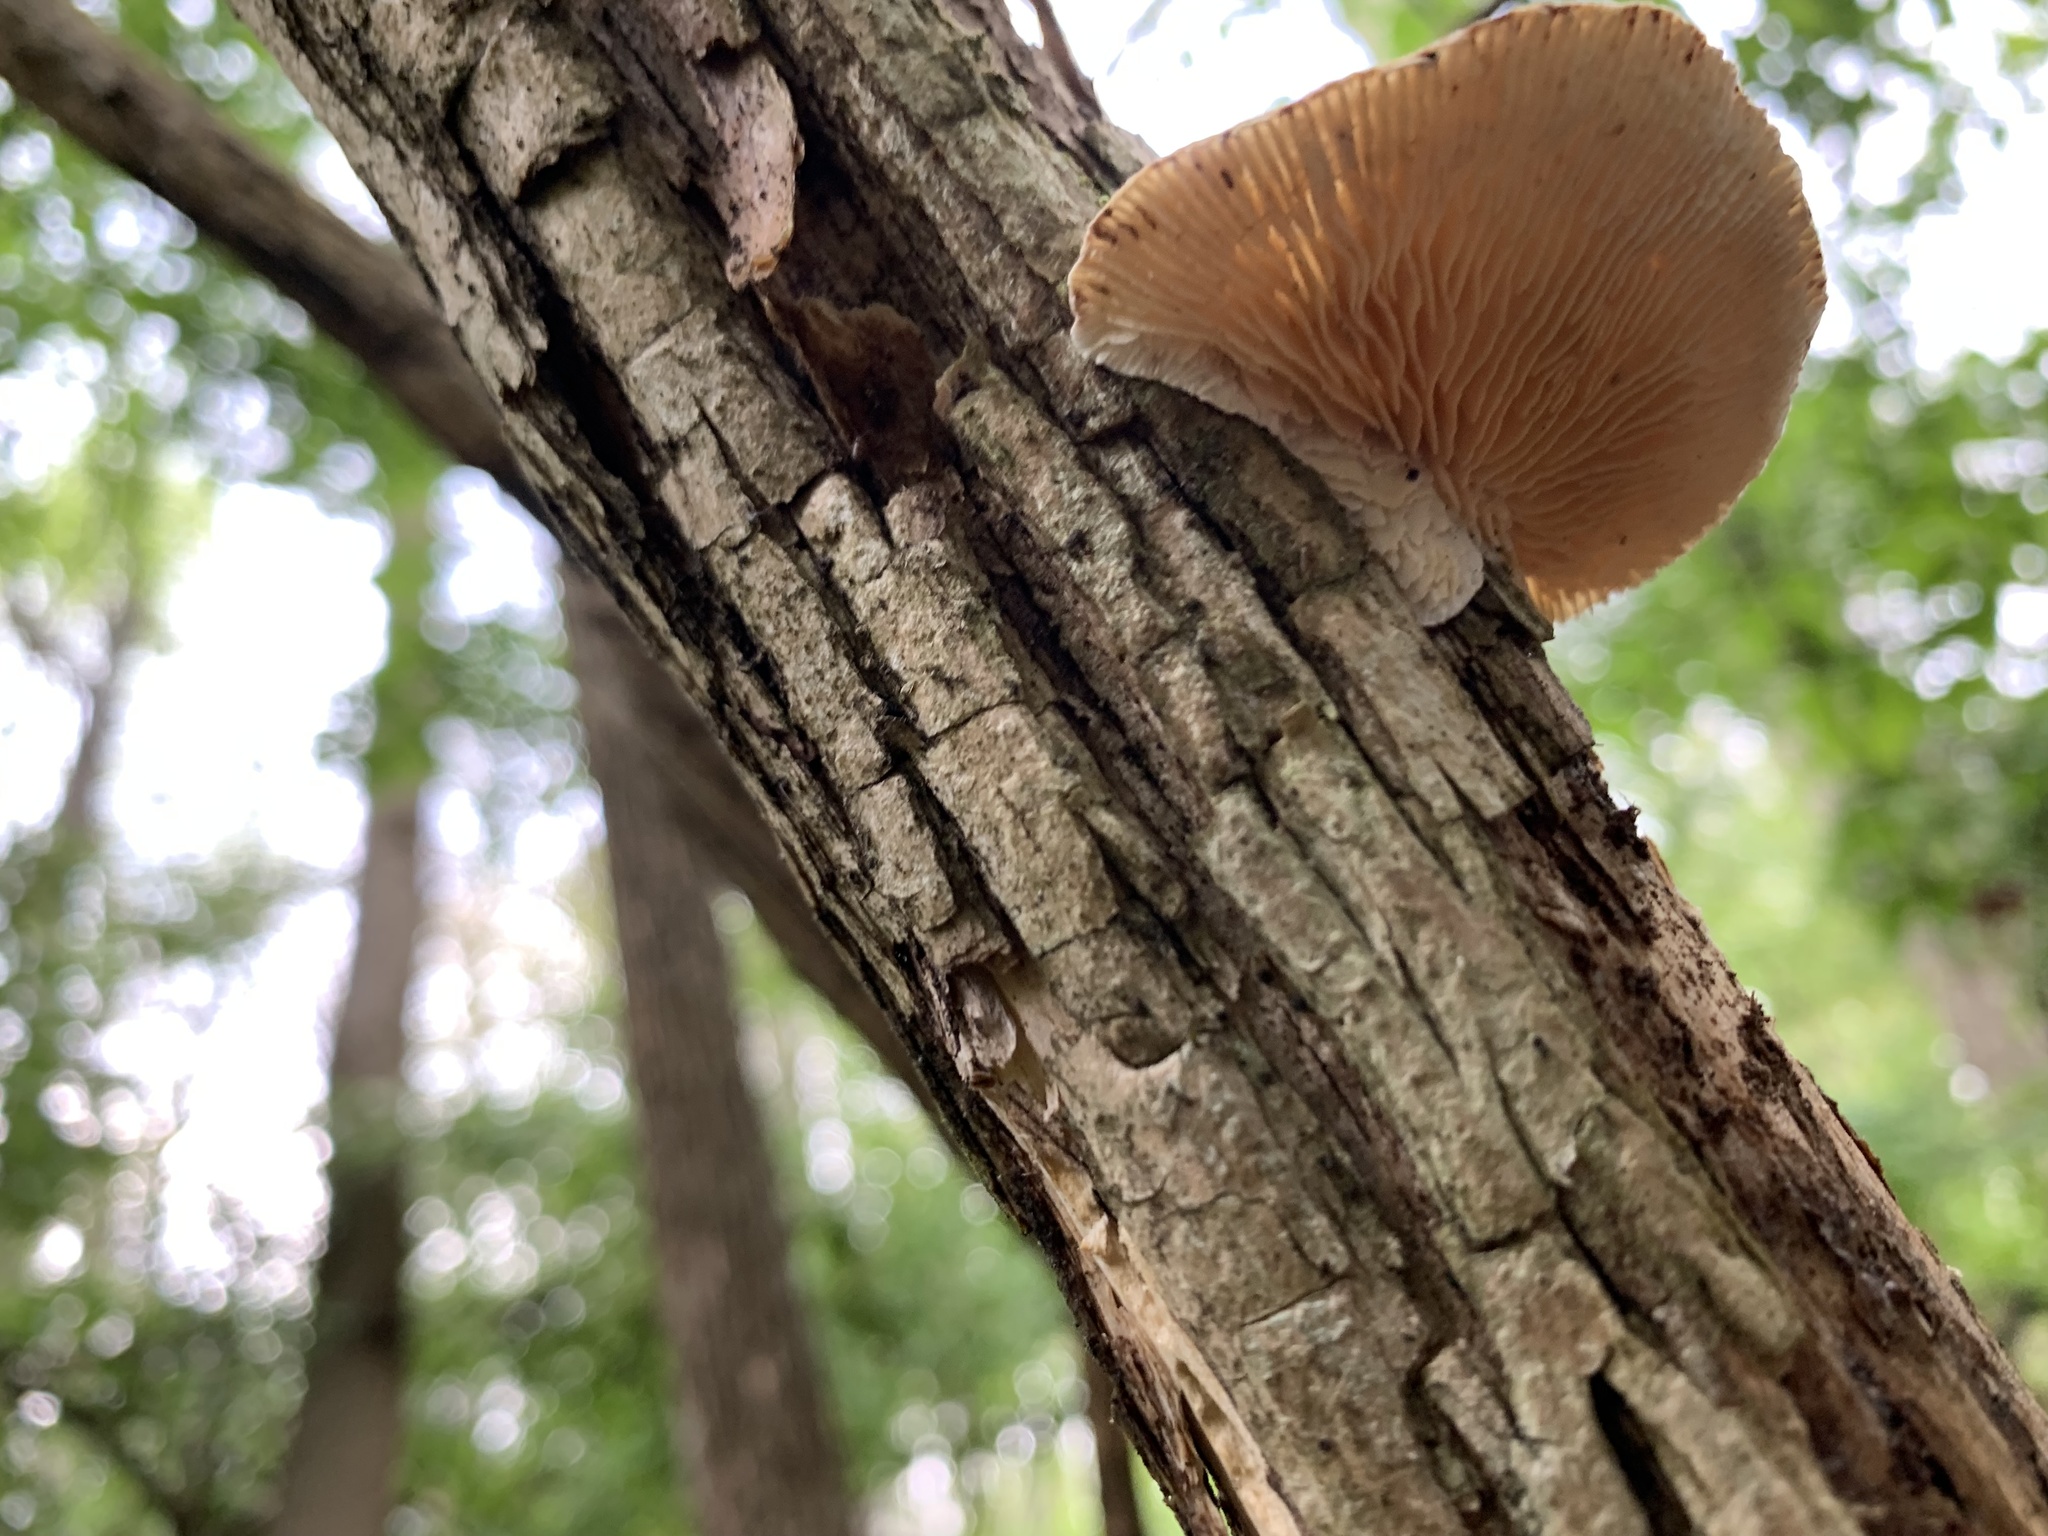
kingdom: Fungi
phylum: Basidiomycota
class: Agaricomycetes
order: Polyporales
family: Polyporaceae
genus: Lenzites
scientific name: Lenzites betulinus
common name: Birch mazegill
